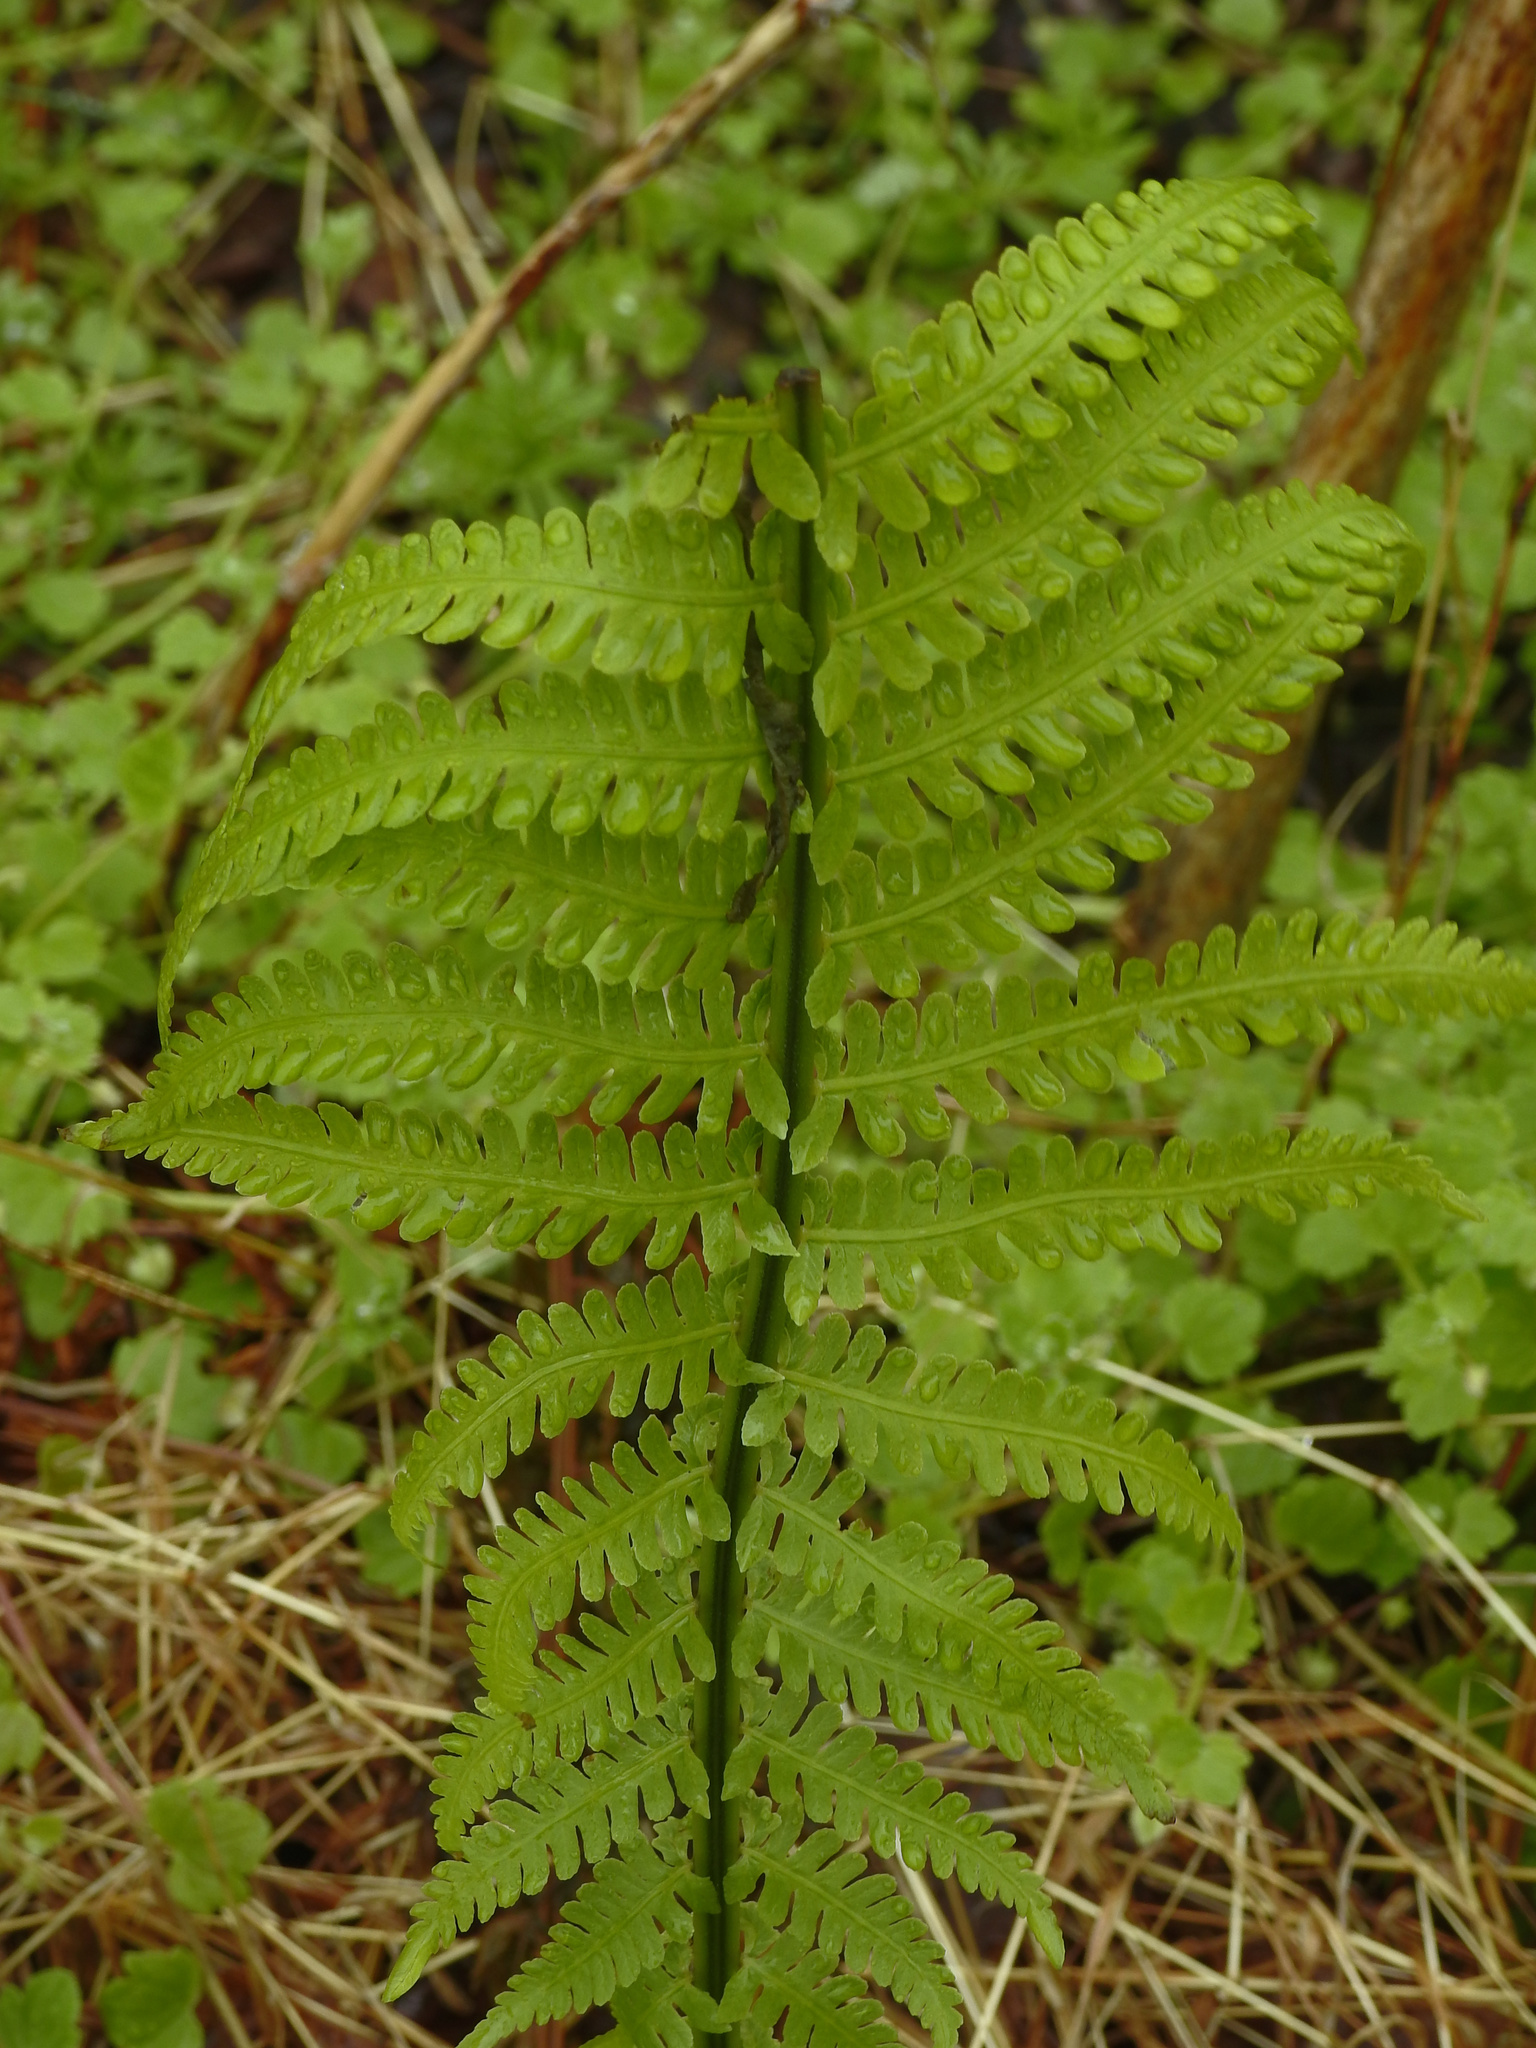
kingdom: Plantae
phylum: Tracheophyta
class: Polypodiopsida
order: Polypodiales
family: Onocleaceae
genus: Matteuccia
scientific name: Matteuccia struthiopteris
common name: Ostrich fern
